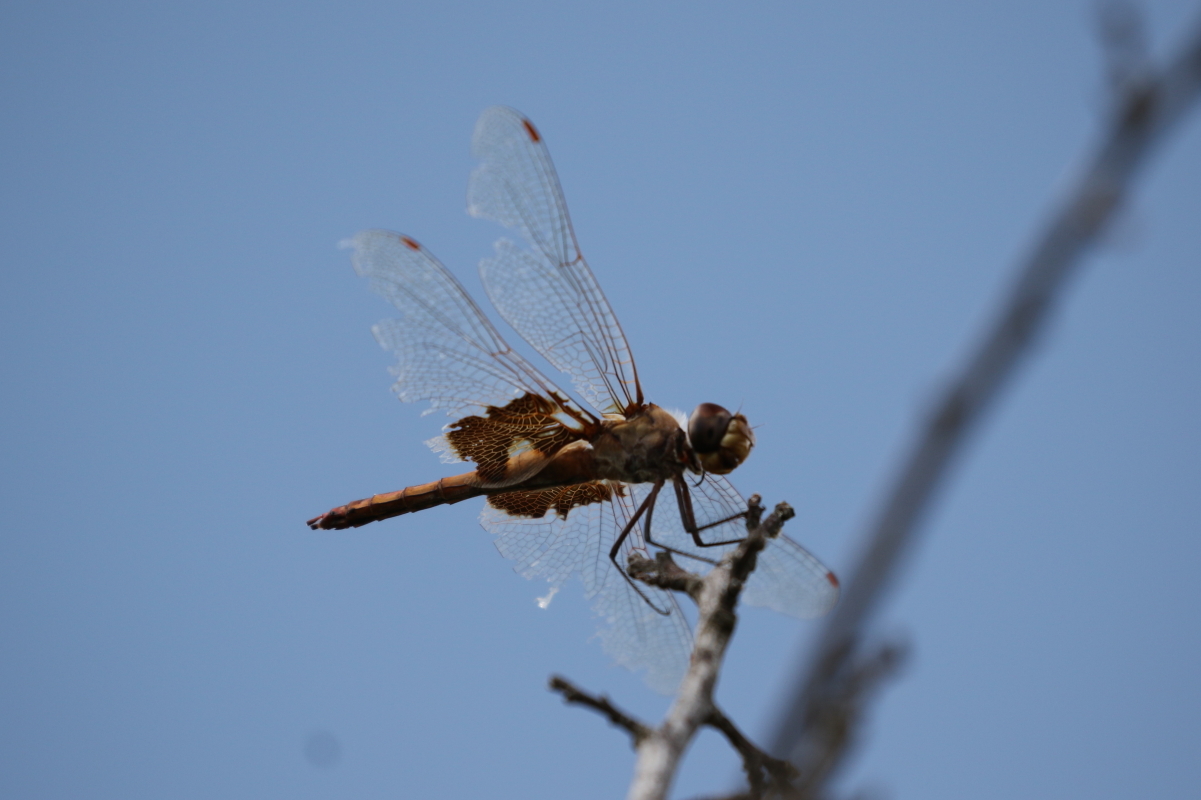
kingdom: Animalia
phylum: Arthropoda
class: Insecta
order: Odonata
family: Libellulidae
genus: Tramea
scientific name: Tramea onusta
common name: Red saddlebags
